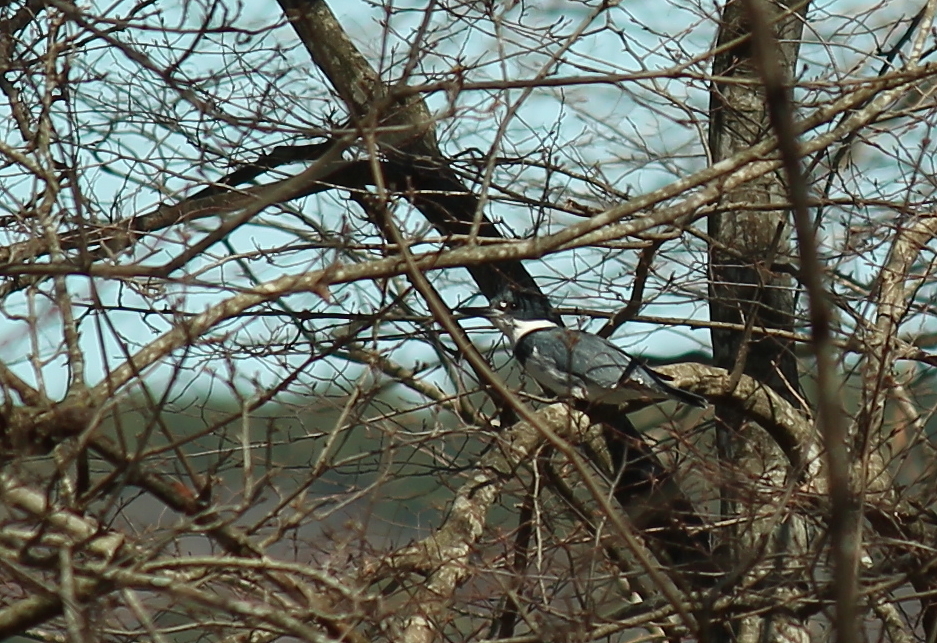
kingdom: Animalia
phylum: Chordata
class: Aves
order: Coraciiformes
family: Alcedinidae
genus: Megaceryle
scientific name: Megaceryle alcyon
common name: Belted kingfisher
